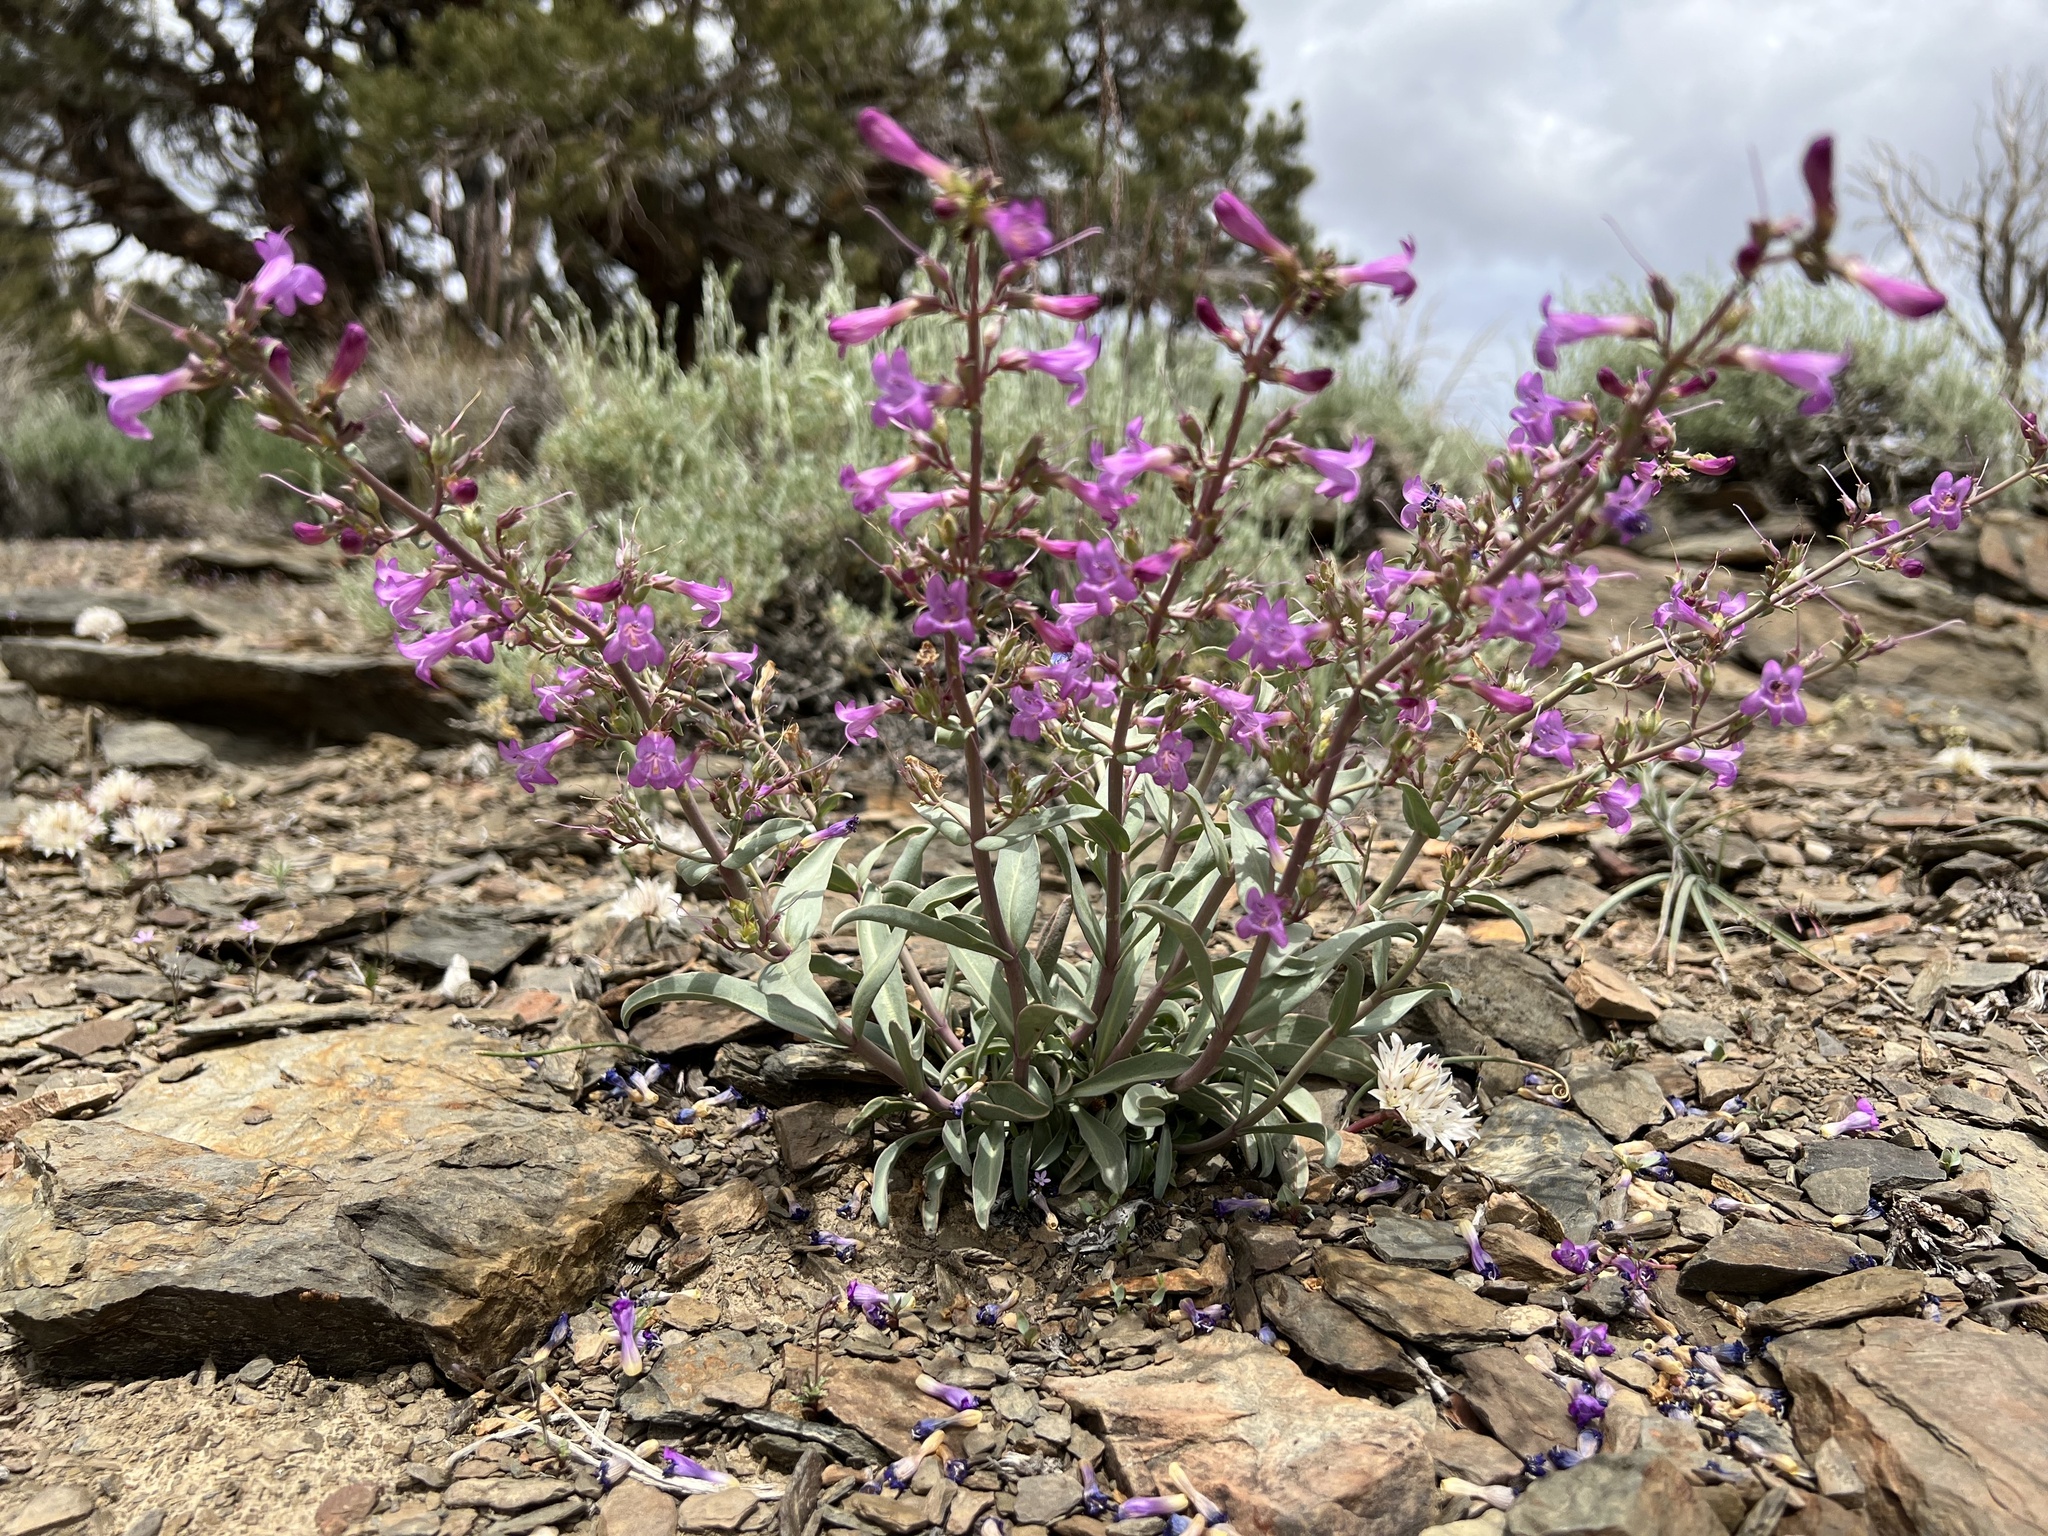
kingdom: Plantae
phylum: Tracheophyta
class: Magnoliopsida
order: Lamiales
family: Plantaginaceae
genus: Penstemon
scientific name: Penstemon patens
